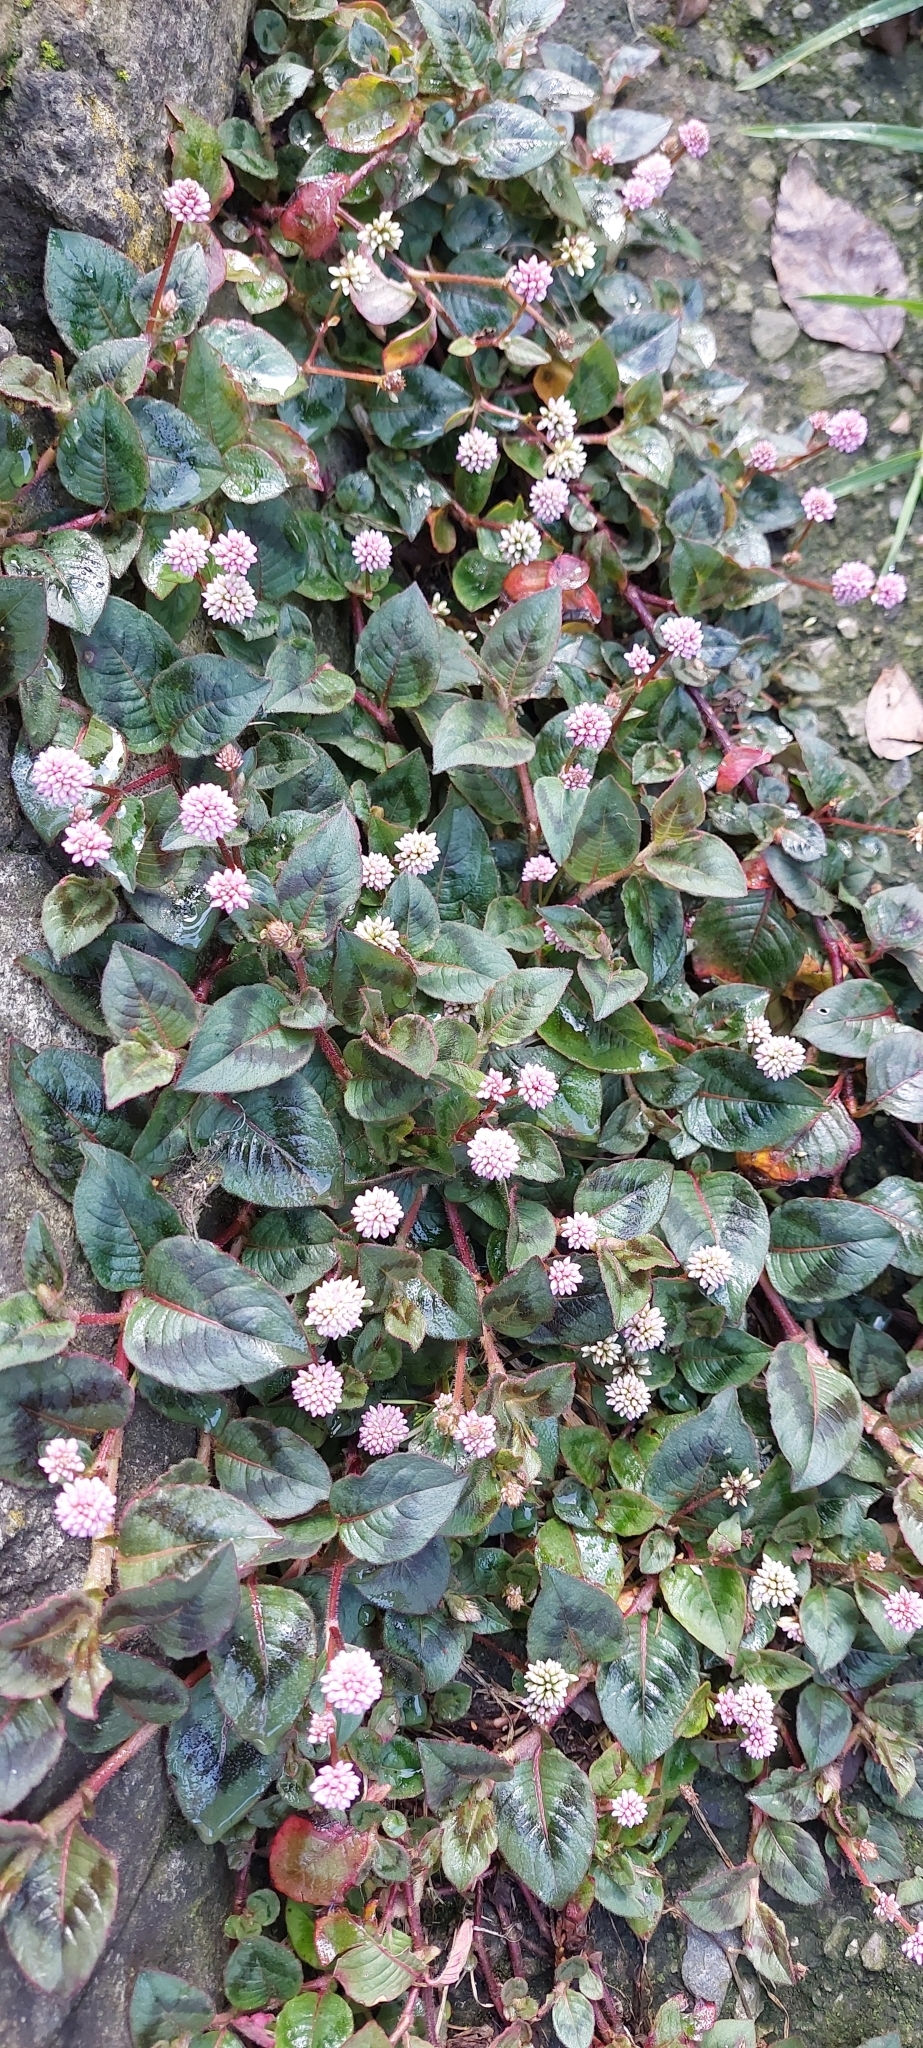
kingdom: Plantae
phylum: Tracheophyta
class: Magnoliopsida
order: Caryophyllales
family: Polygonaceae
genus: Persicaria
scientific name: Persicaria capitata
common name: Pinkhead smartweed
